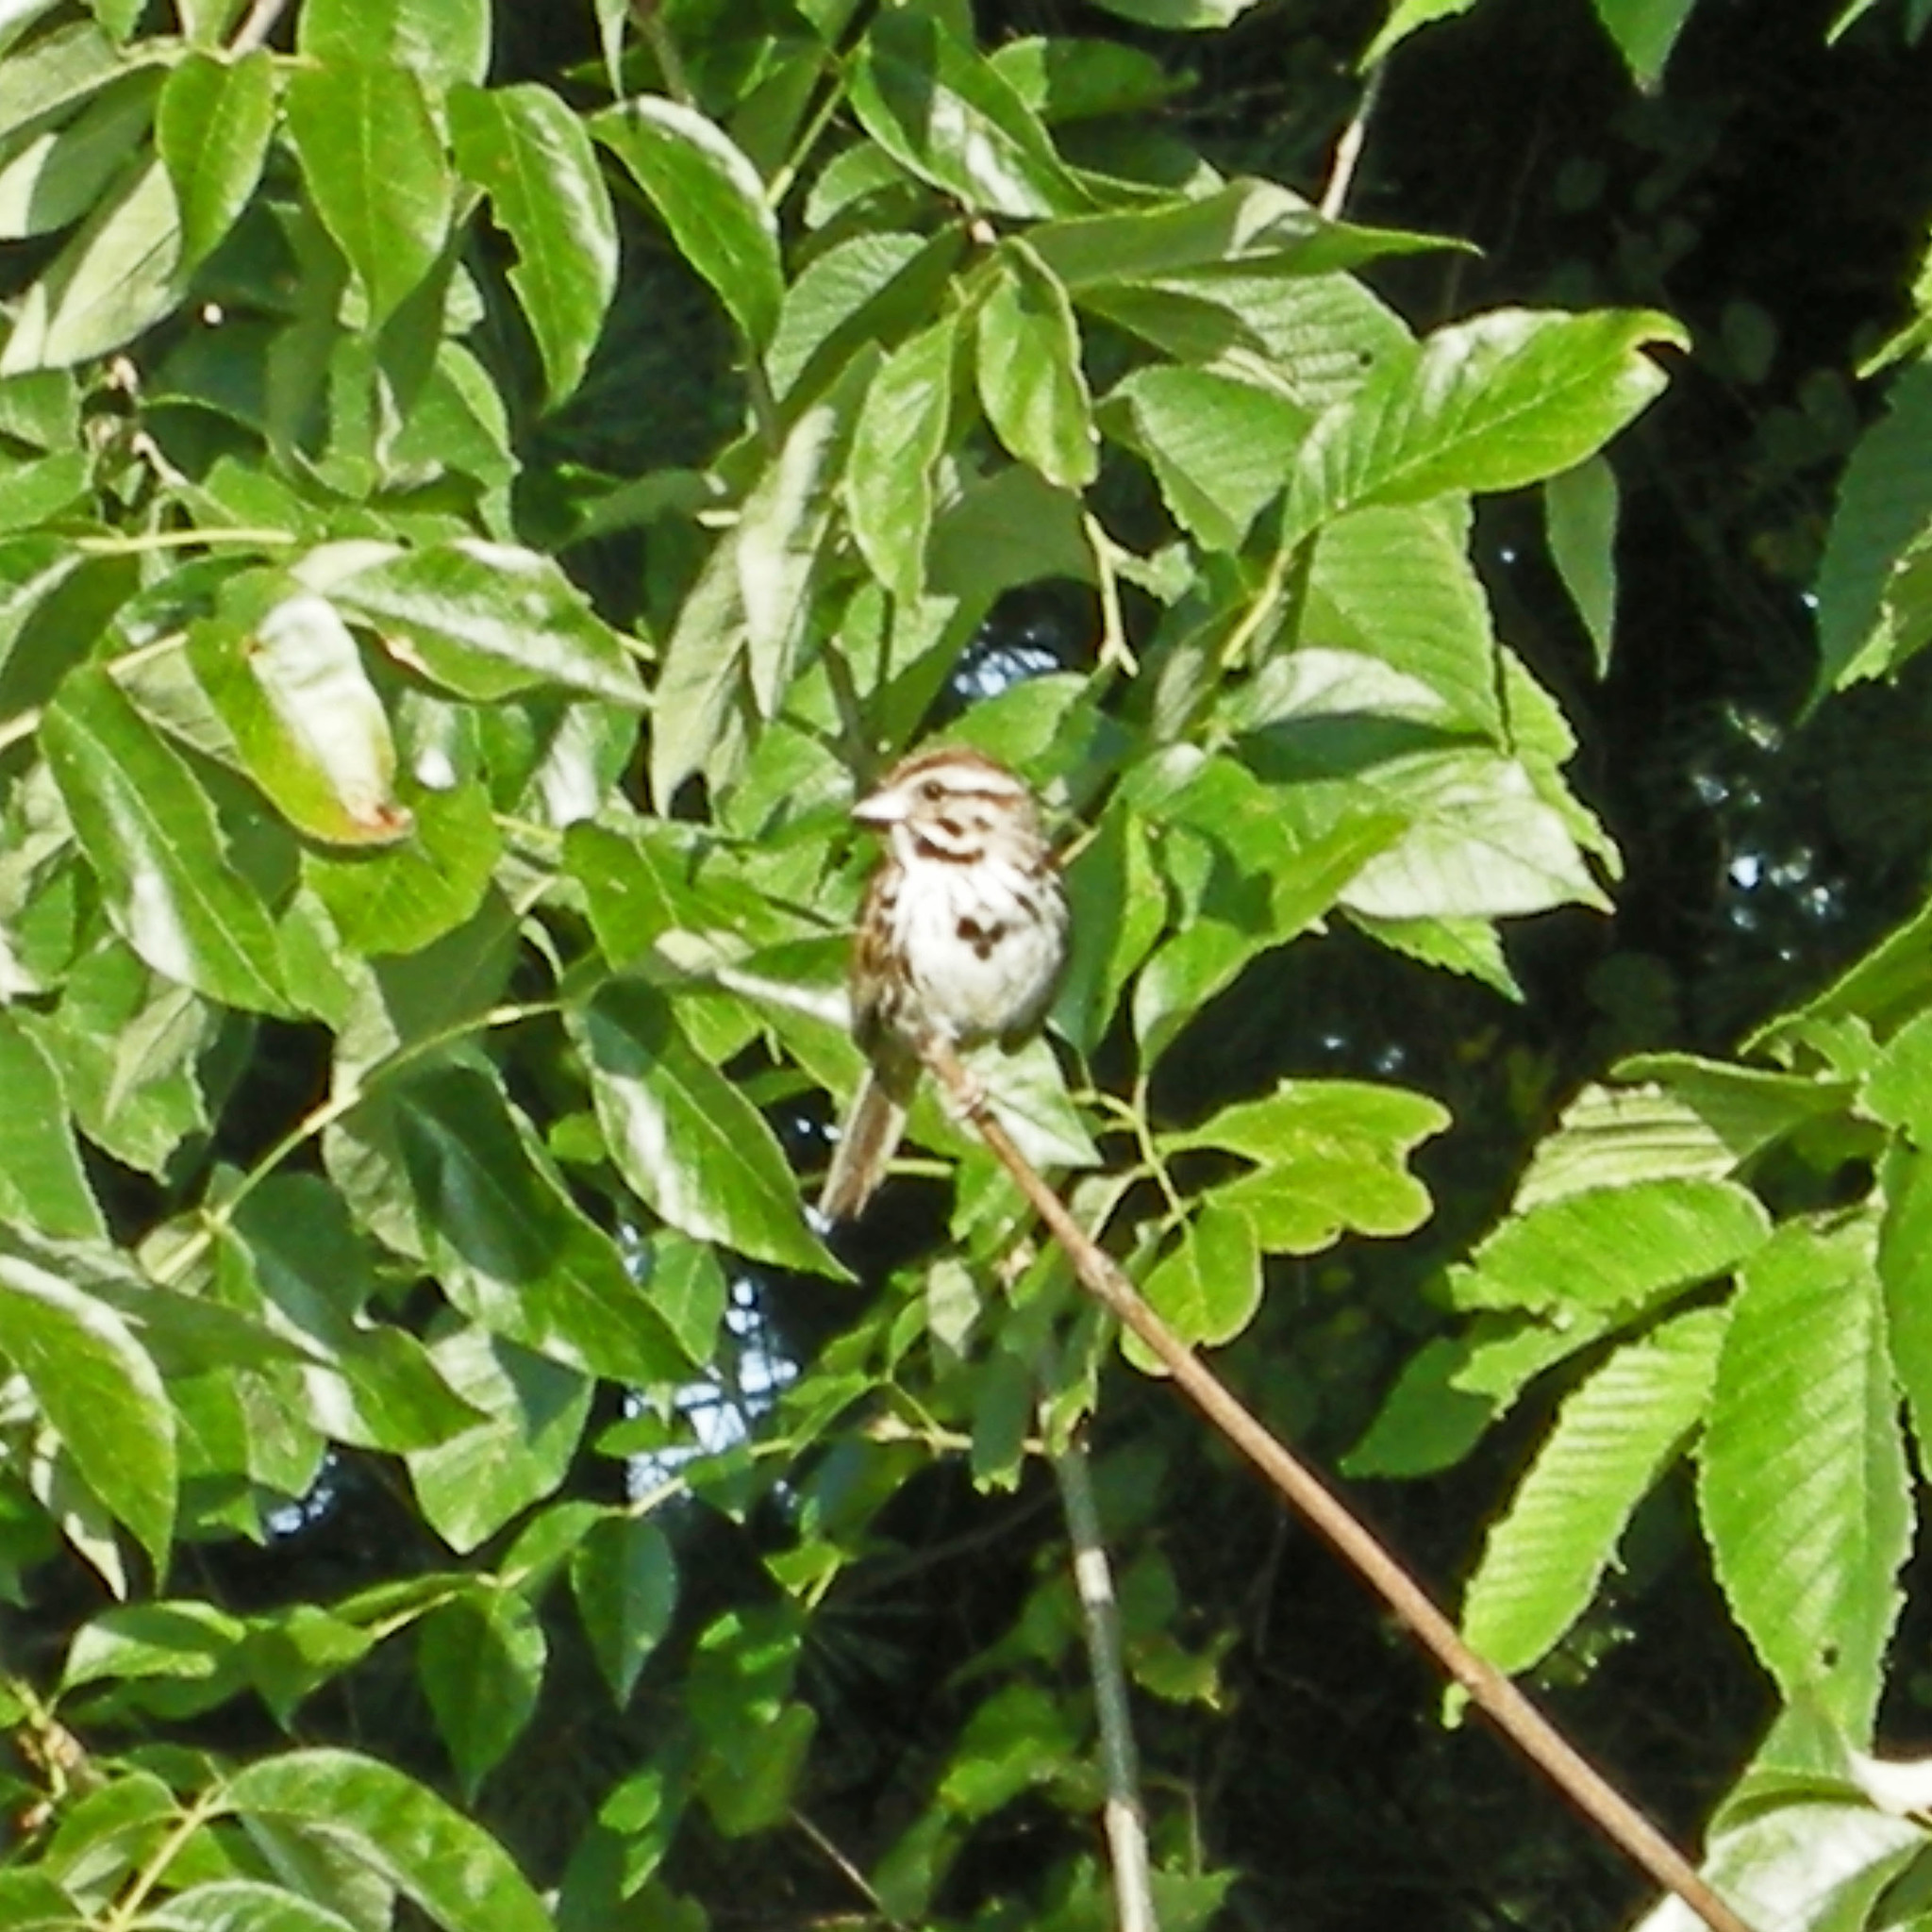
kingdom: Animalia
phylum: Chordata
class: Aves
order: Passeriformes
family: Passerellidae
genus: Melospiza
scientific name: Melospiza melodia
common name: Song sparrow
